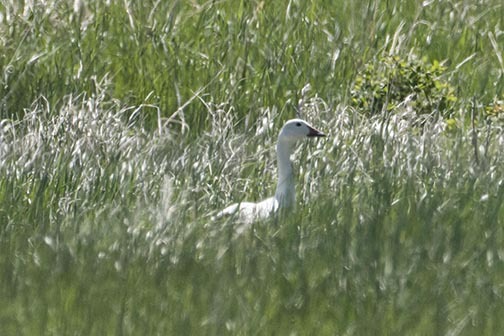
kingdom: Animalia
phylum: Chordata
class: Aves
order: Anseriformes
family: Anatidae
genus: Anser
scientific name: Anser caerulescens
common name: Snow goose
